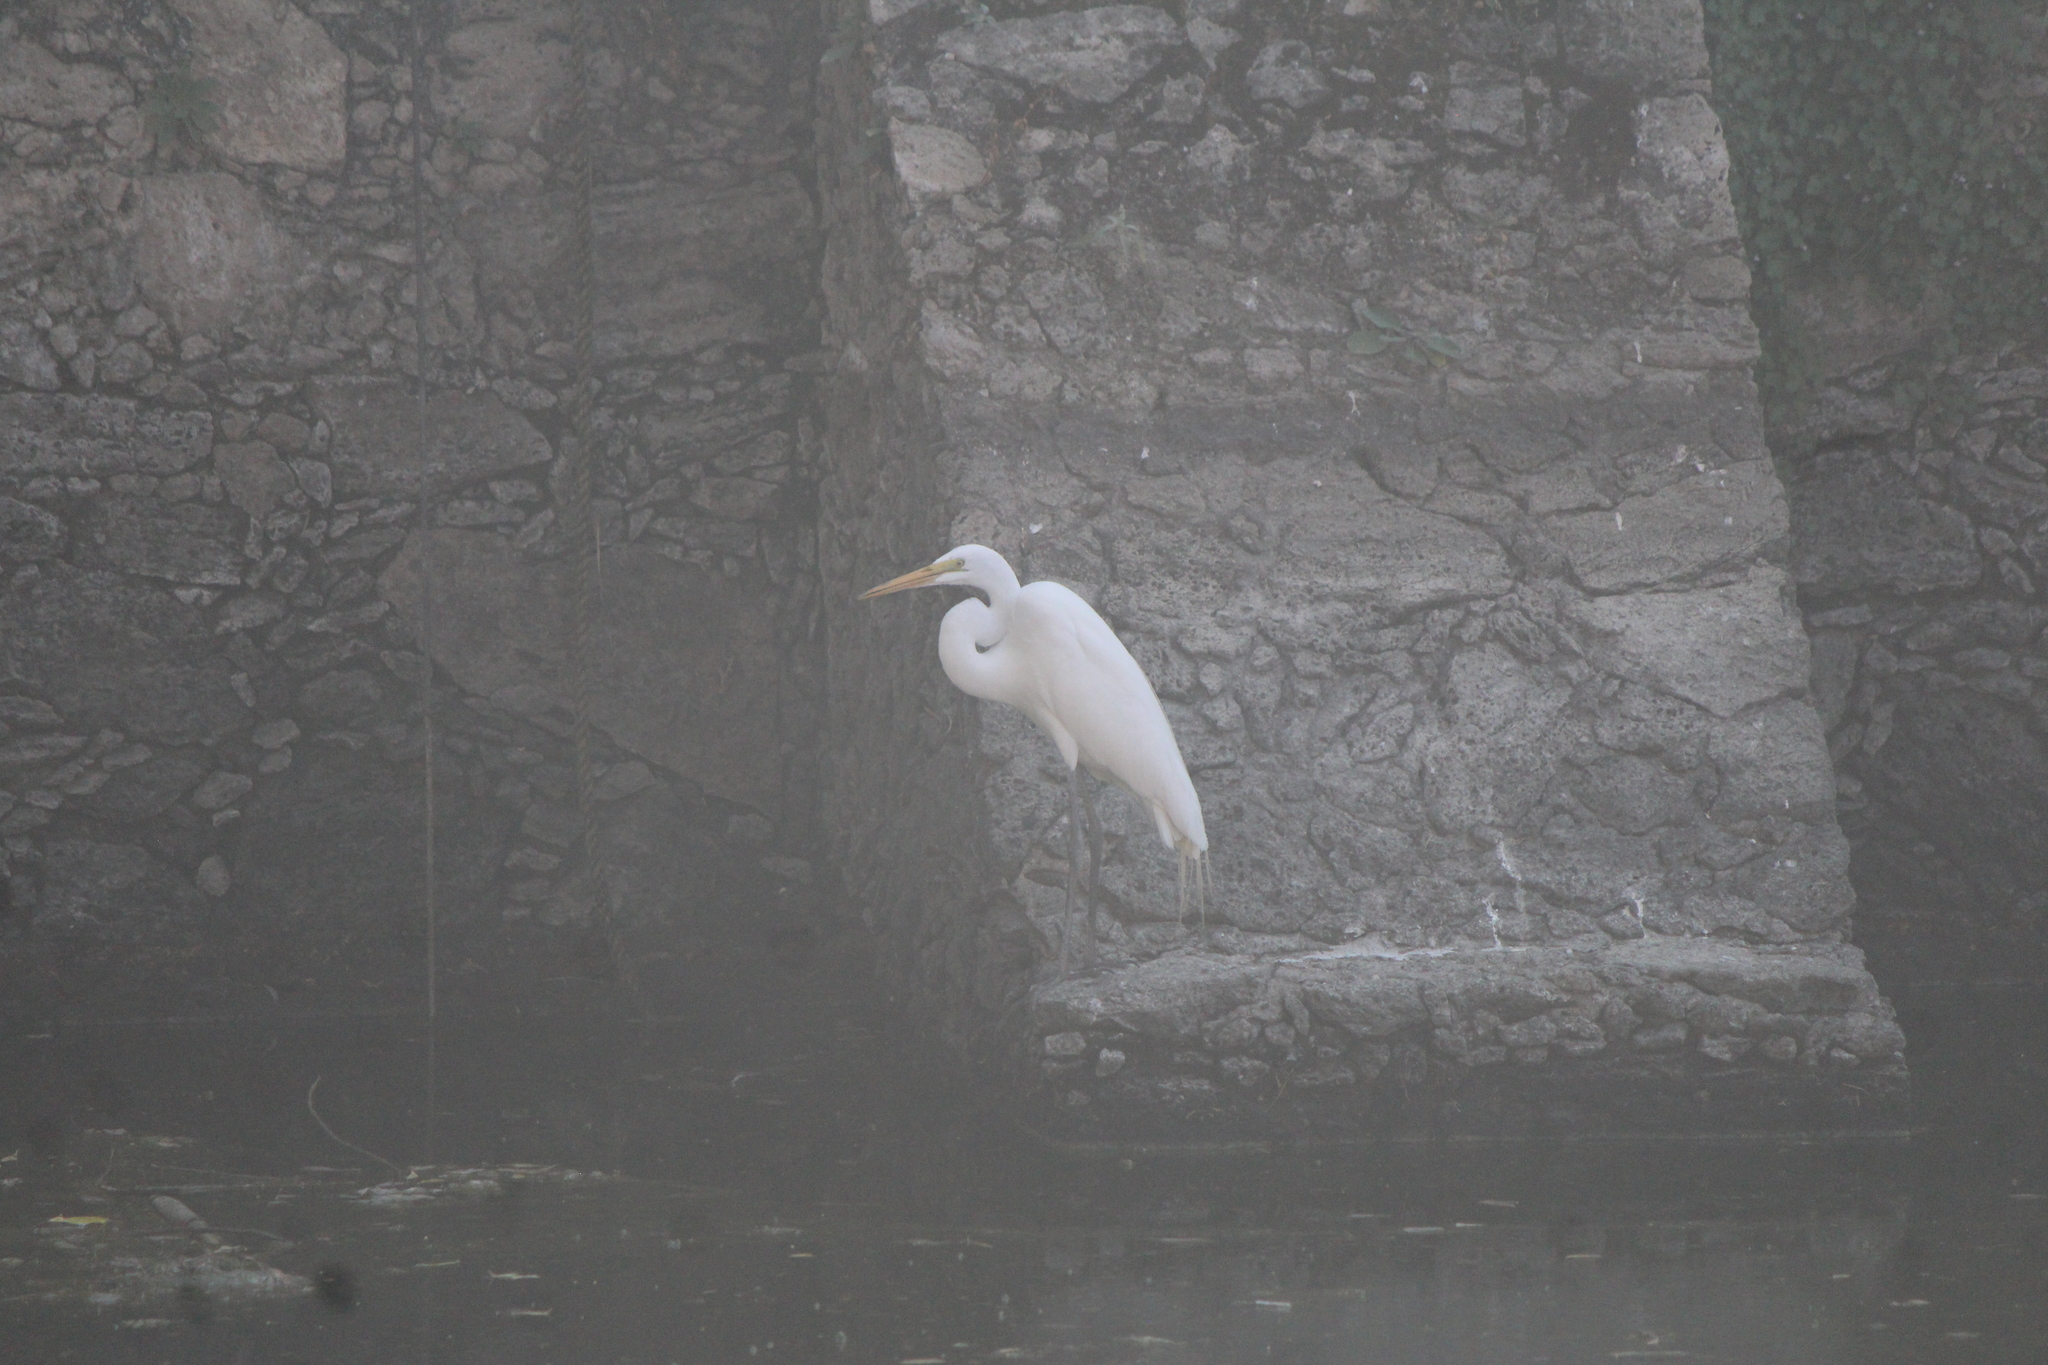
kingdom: Animalia
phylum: Chordata
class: Aves
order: Pelecaniformes
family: Ardeidae
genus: Ardea
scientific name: Ardea alba
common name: Great egret
